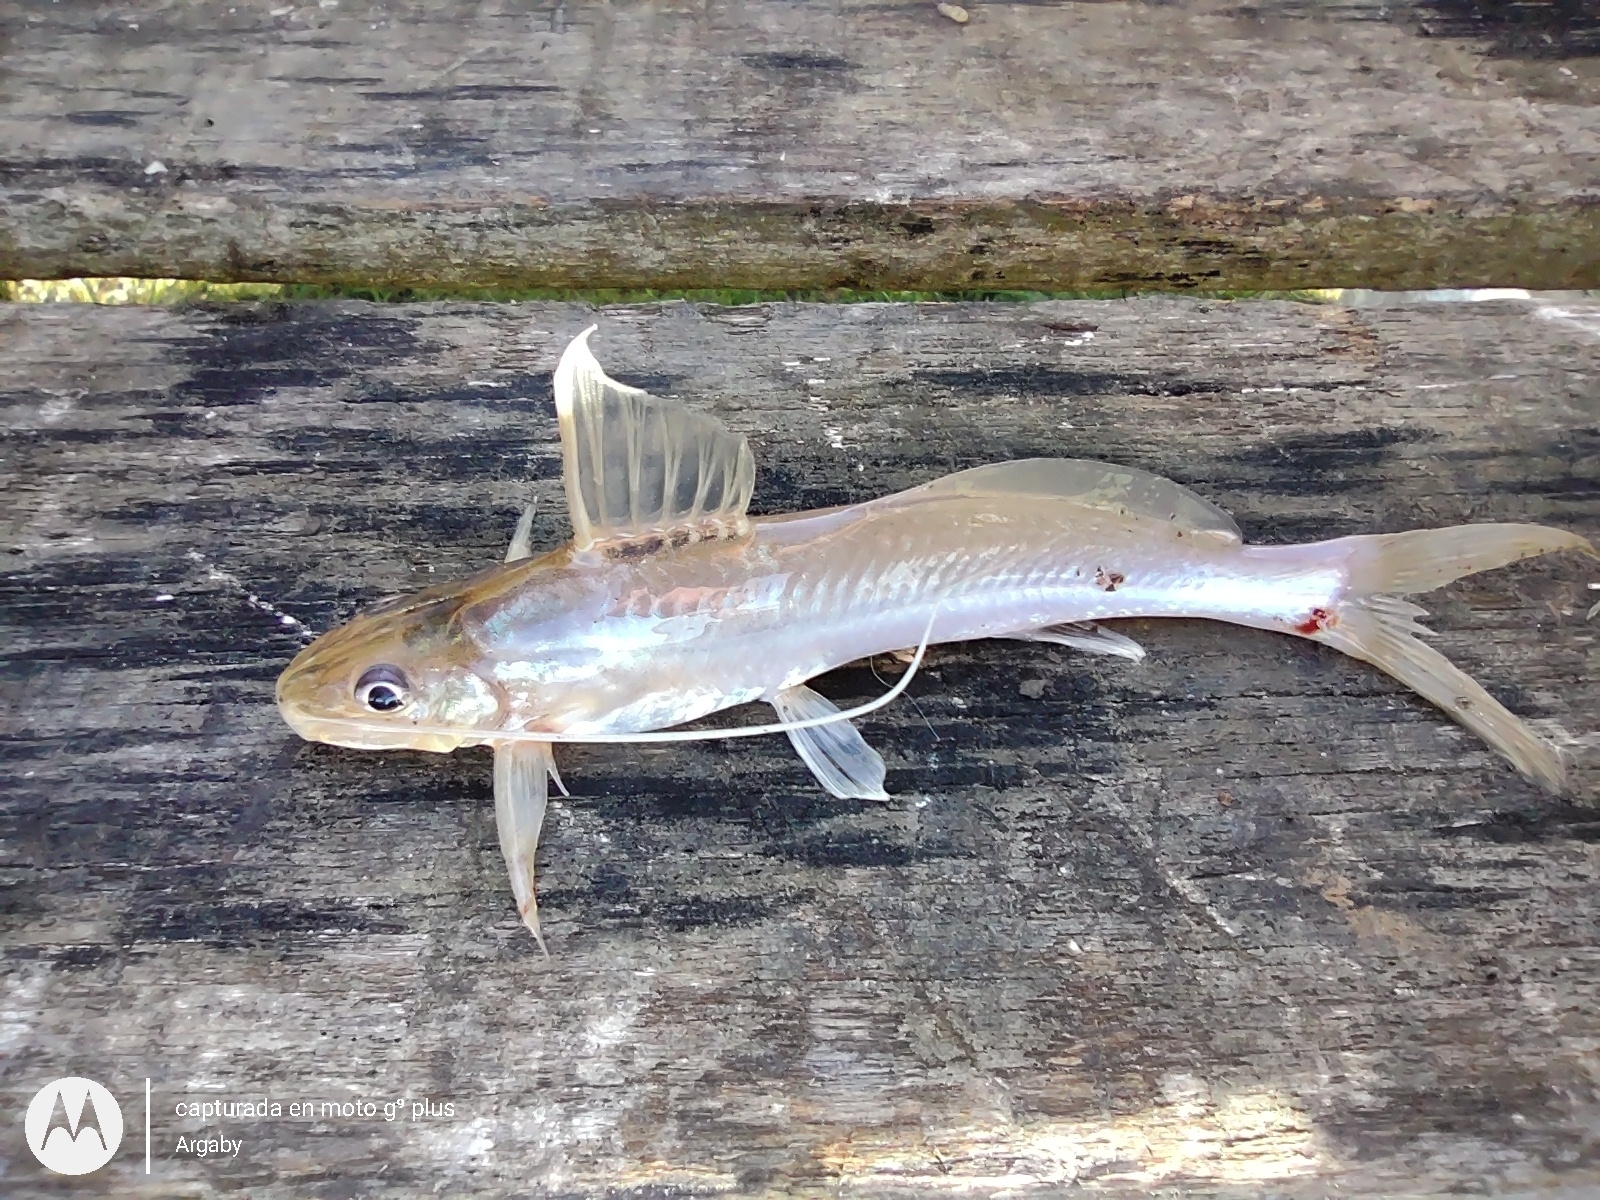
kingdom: Animalia
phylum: Chordata
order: Siluriformes
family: Heptapteridae
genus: Pimelodella
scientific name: Pimelodella gracilis
